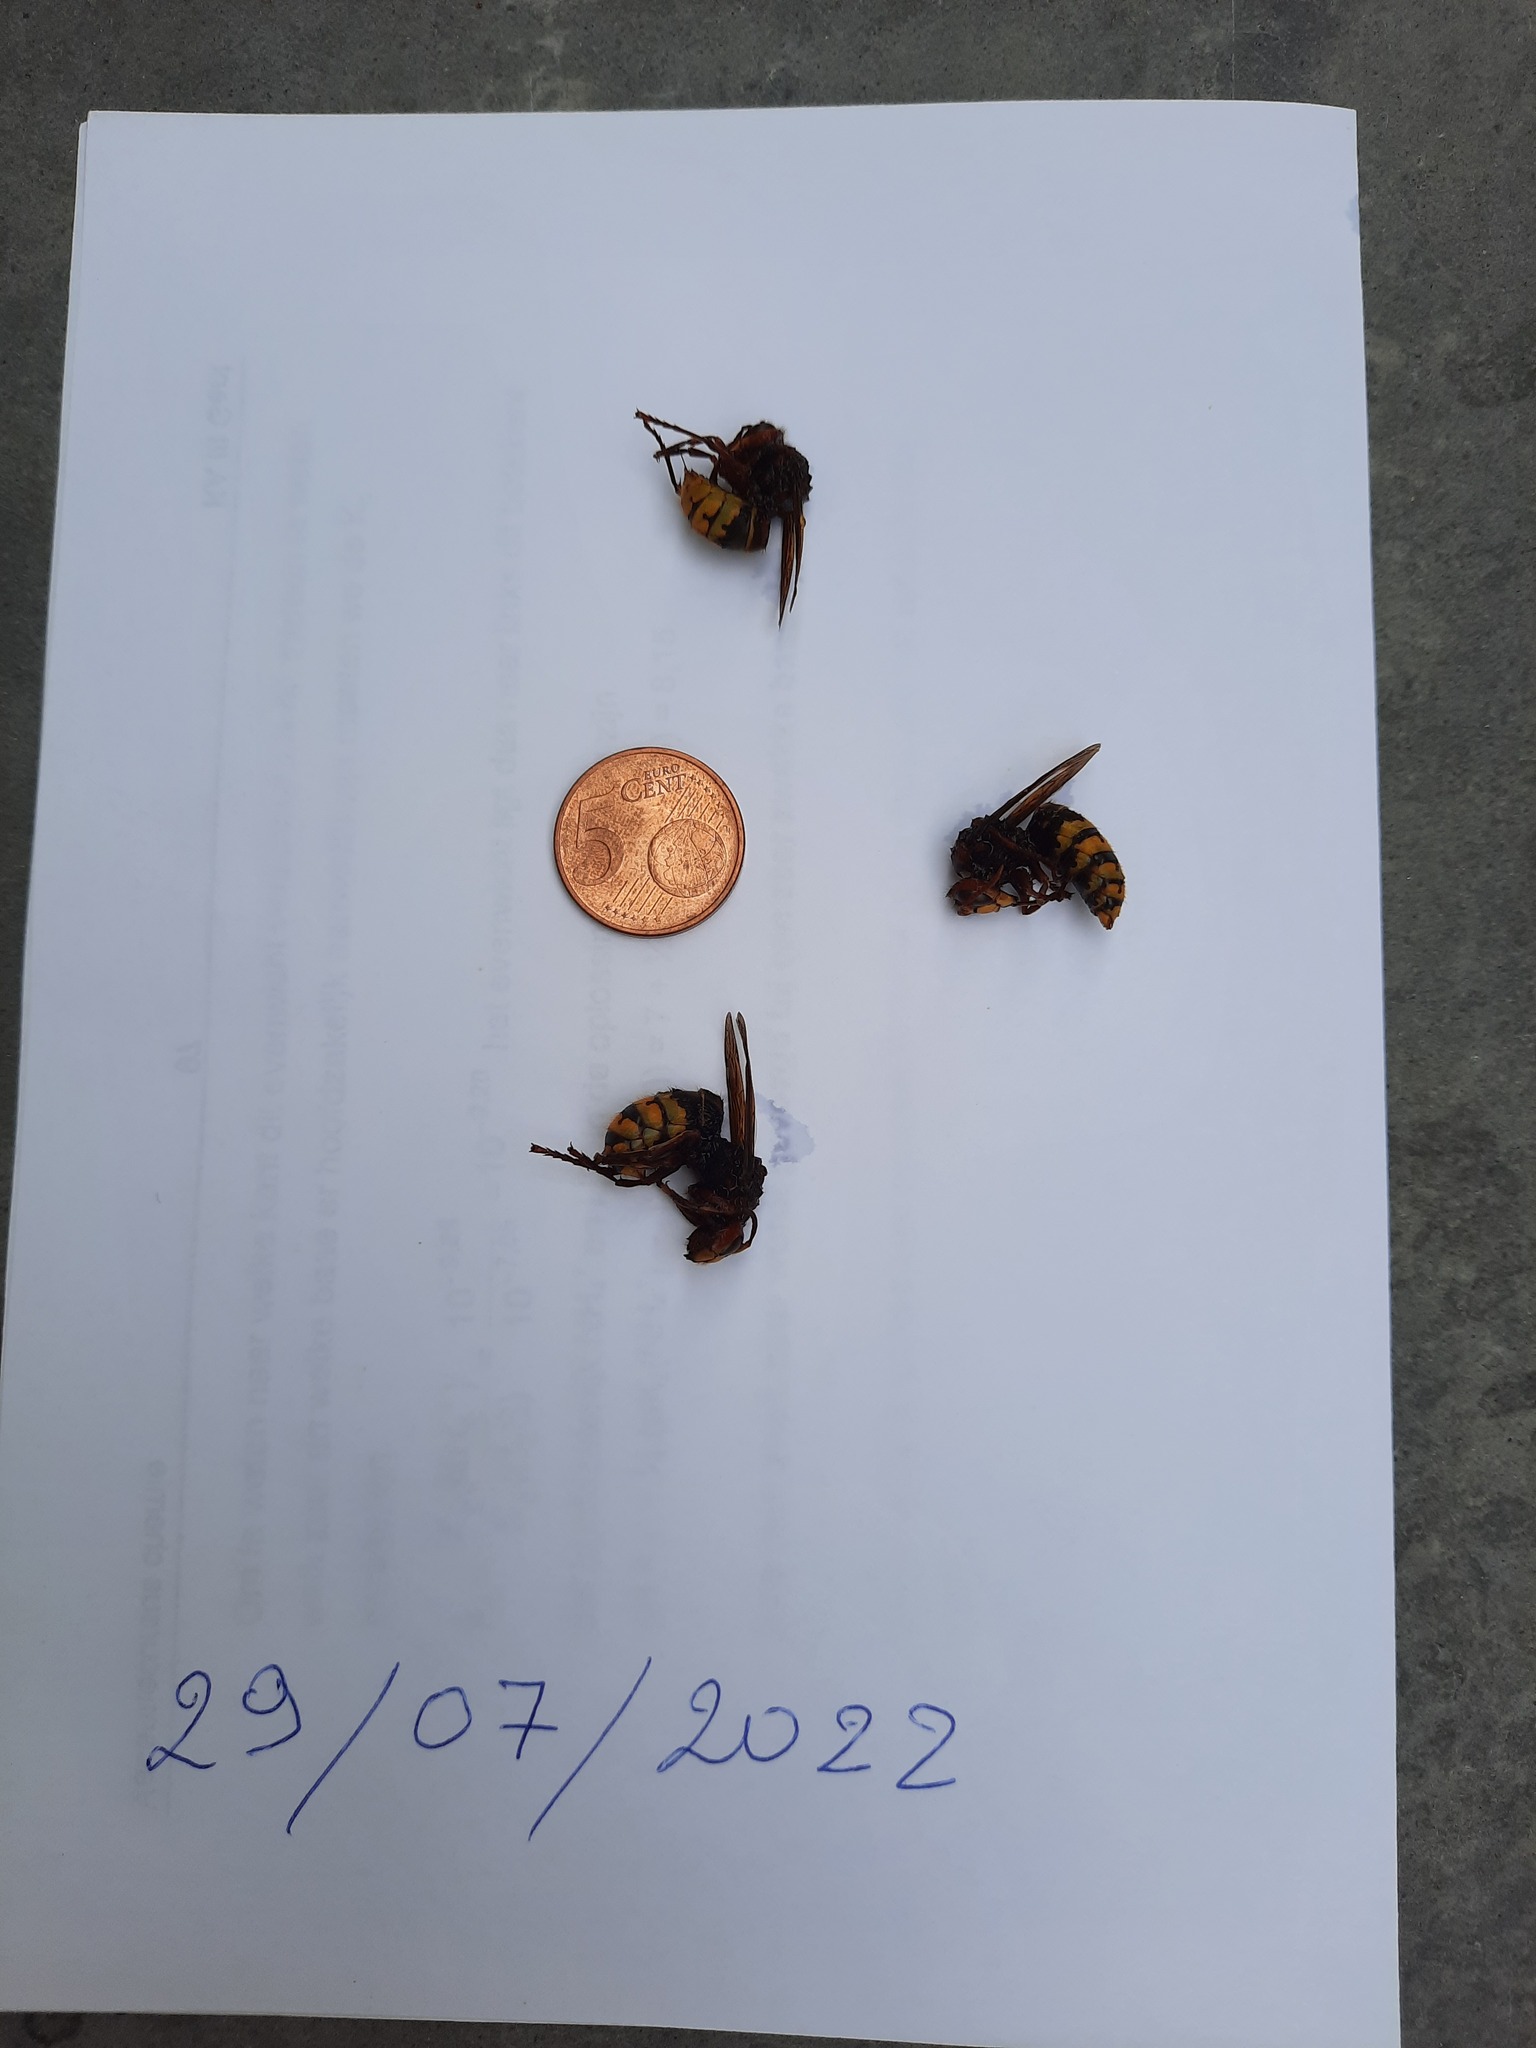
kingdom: Animalia
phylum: Arthropoda
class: Insecta
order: Hymenoptera
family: Vespidae
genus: Vespa
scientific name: Vespa crabro
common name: Hornet
